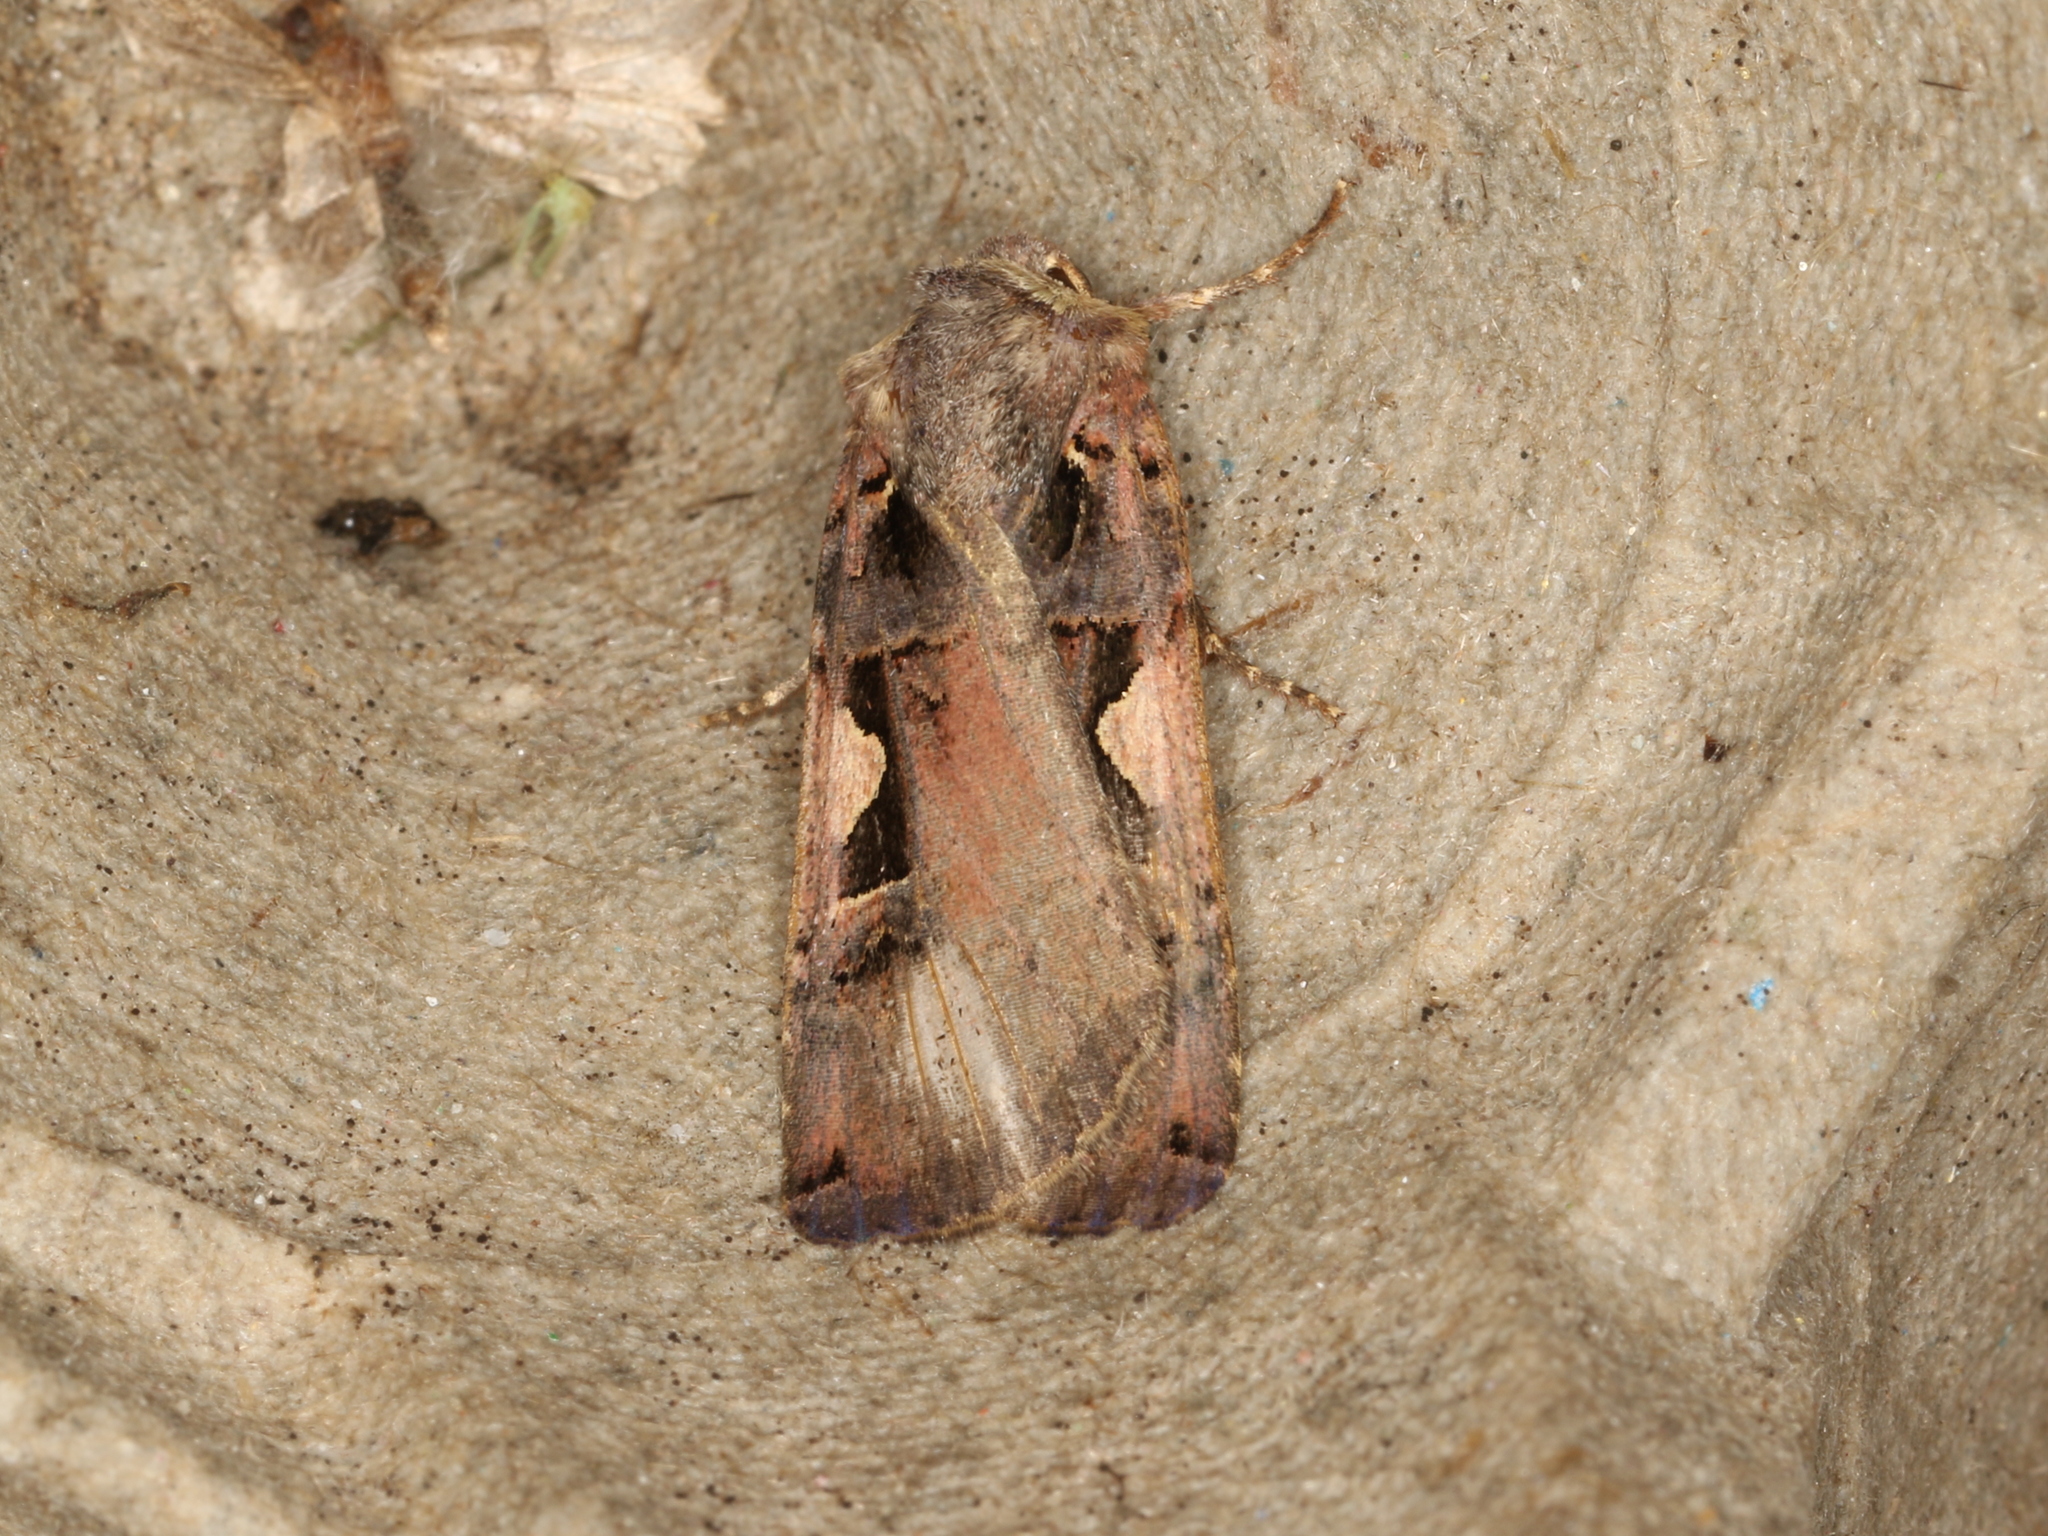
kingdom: Animalia
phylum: Arthropoda
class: Insecta
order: Lepidoptera
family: Noctuidae
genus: Xestia
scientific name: Xestia c-nigrum
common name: Setaceous hebrew character
